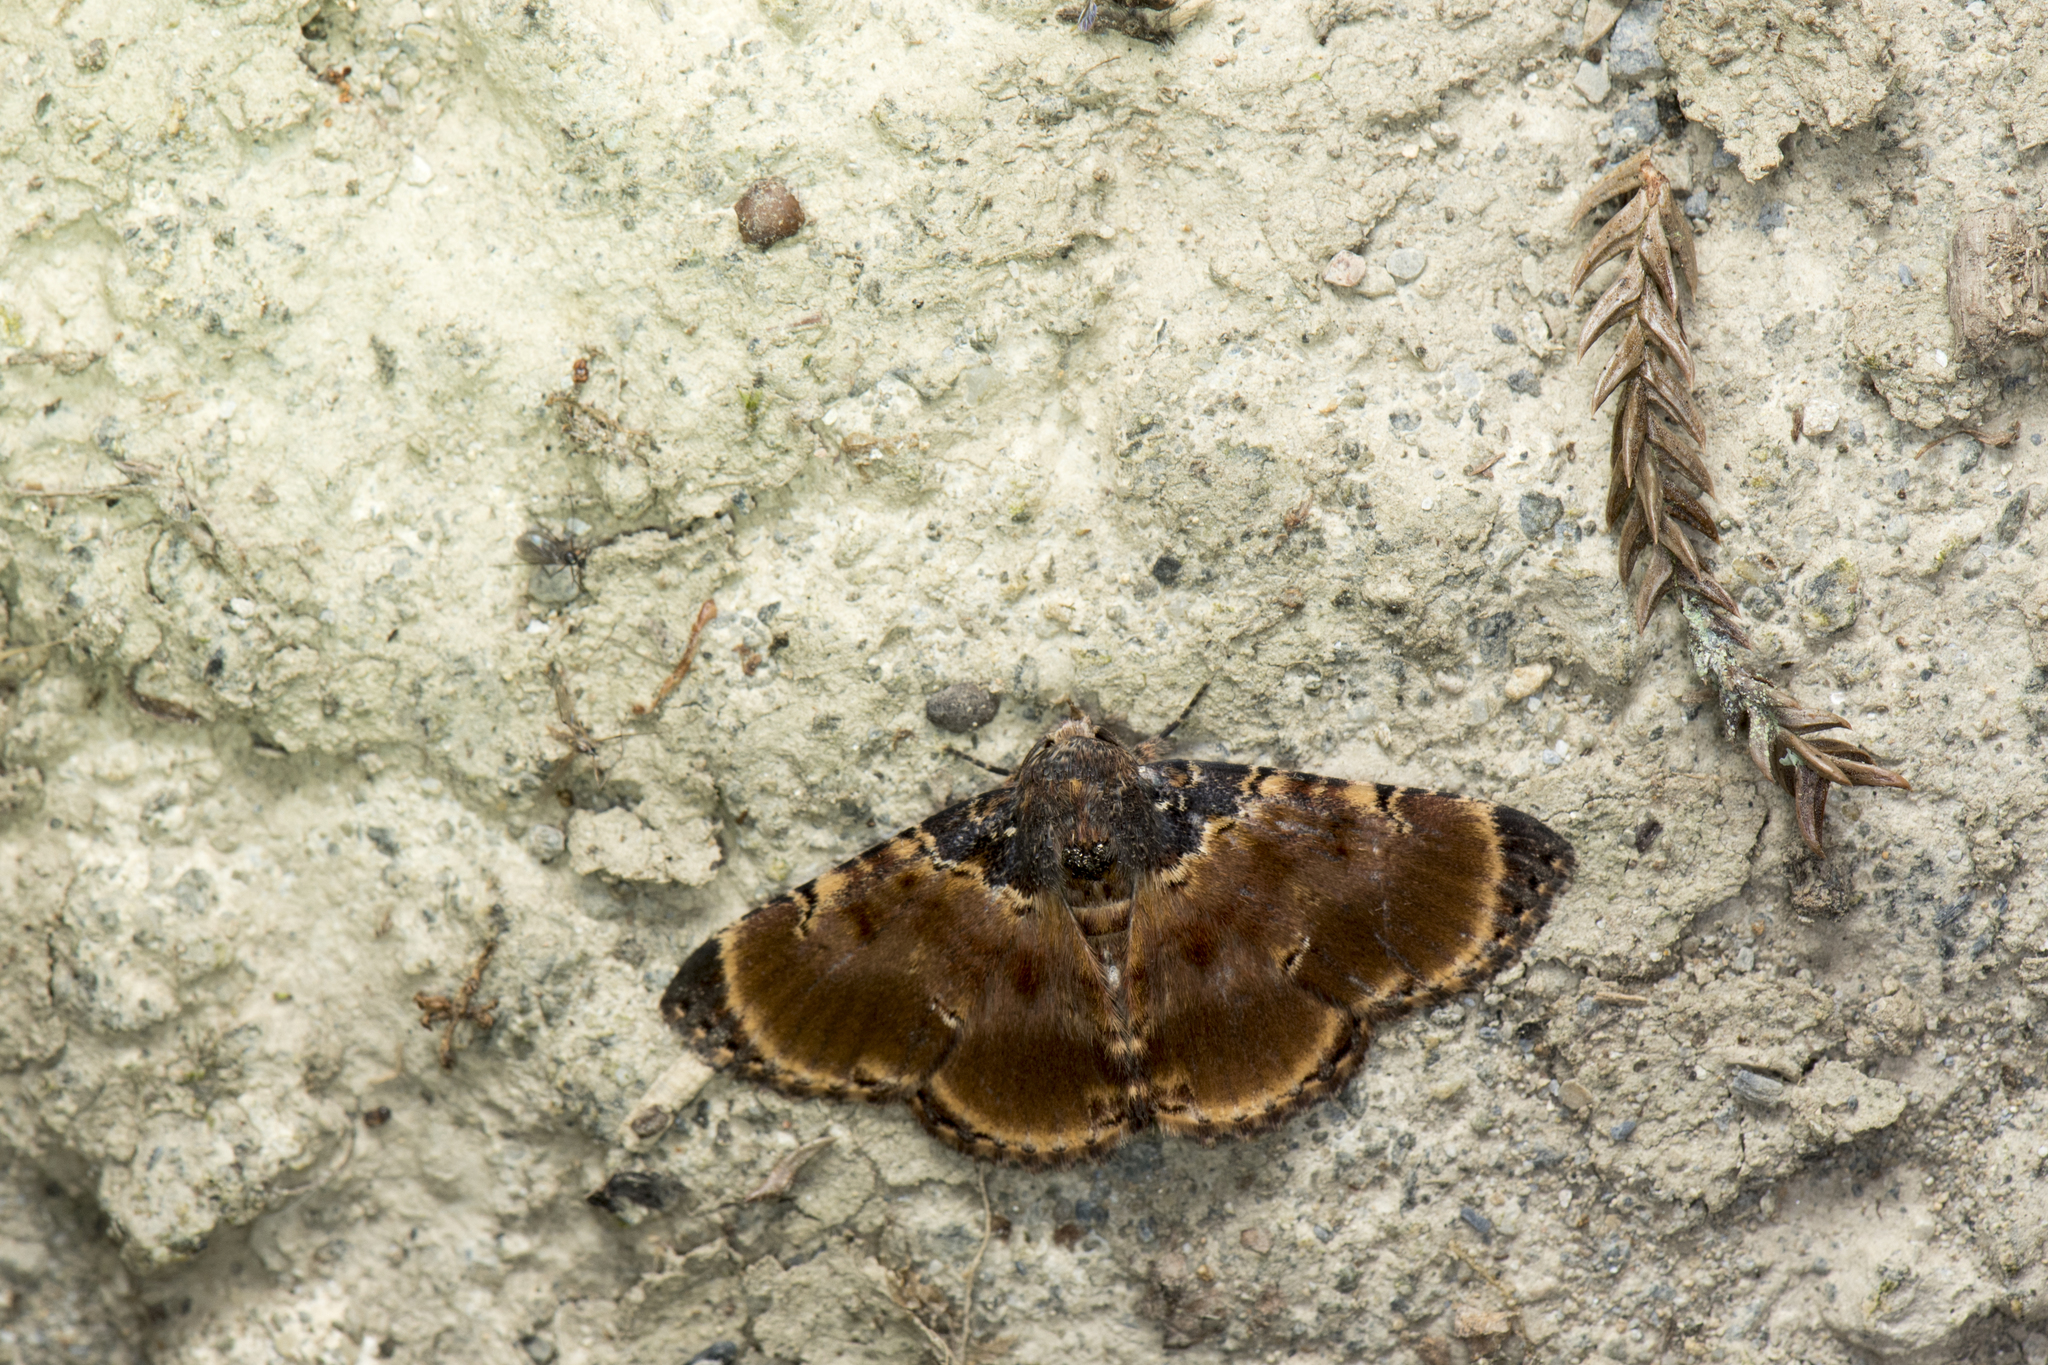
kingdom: Animalia
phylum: Arthropoda
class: Insecta
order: Lepidoptera
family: Erebidae
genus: Diomea
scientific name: Diomea lignicolora
